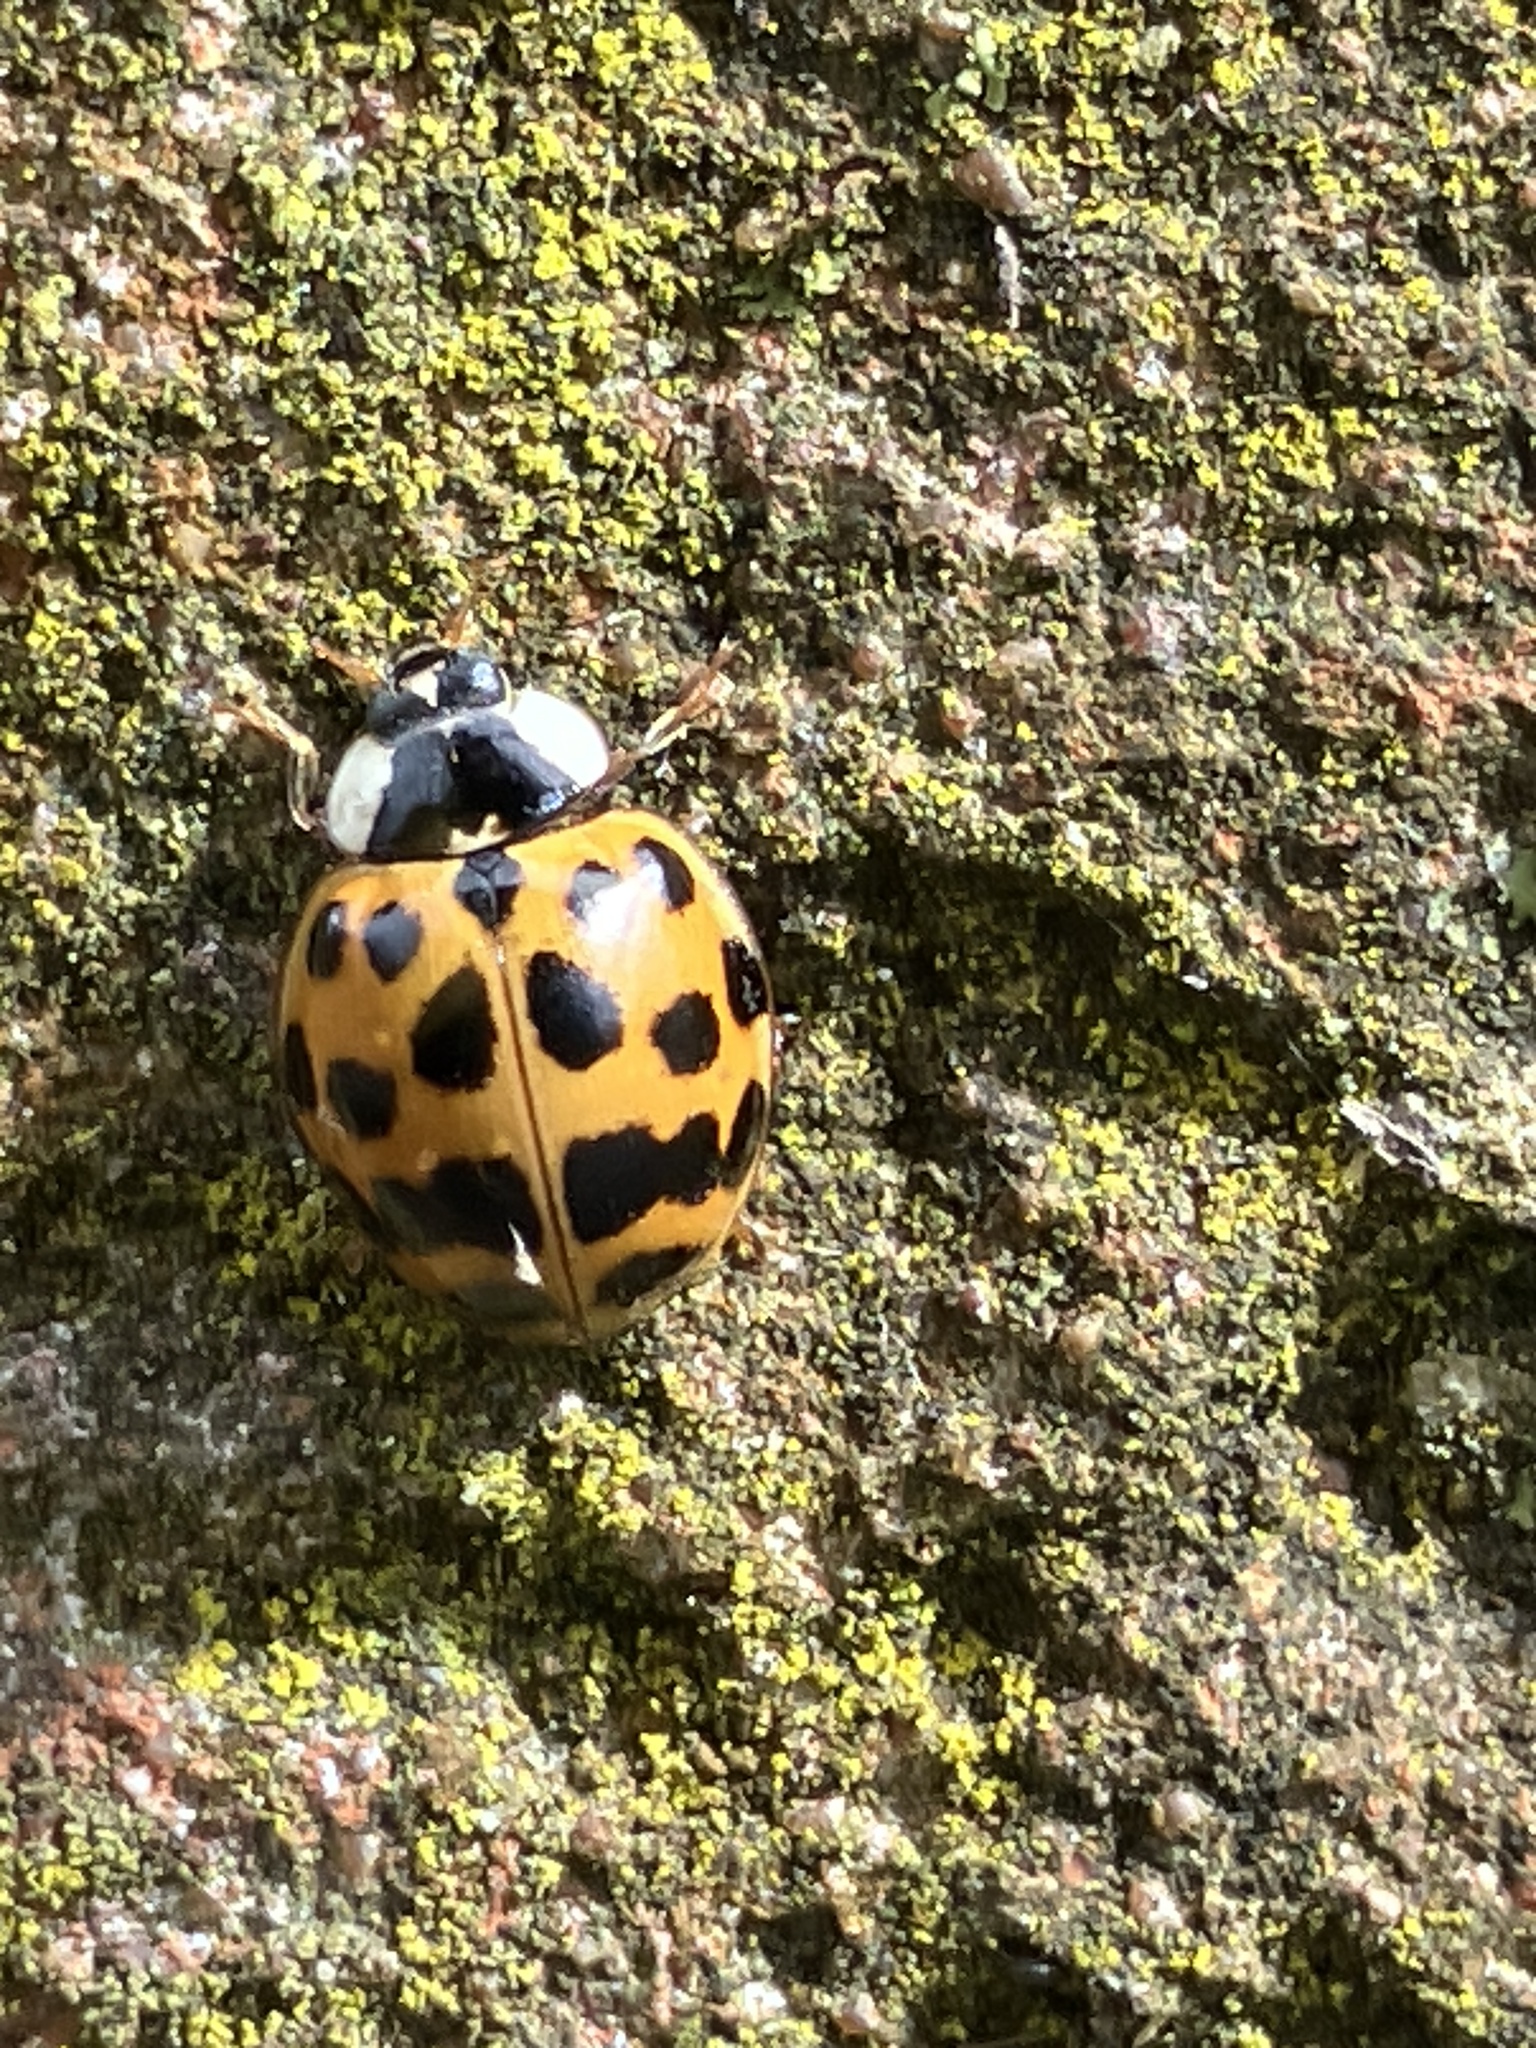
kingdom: Animalia
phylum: Arthropoda
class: Insecta
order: Coleoptera
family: Coccinellidae
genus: Harmonia
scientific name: Harmonia axyridis
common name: Harlequin ladybird
